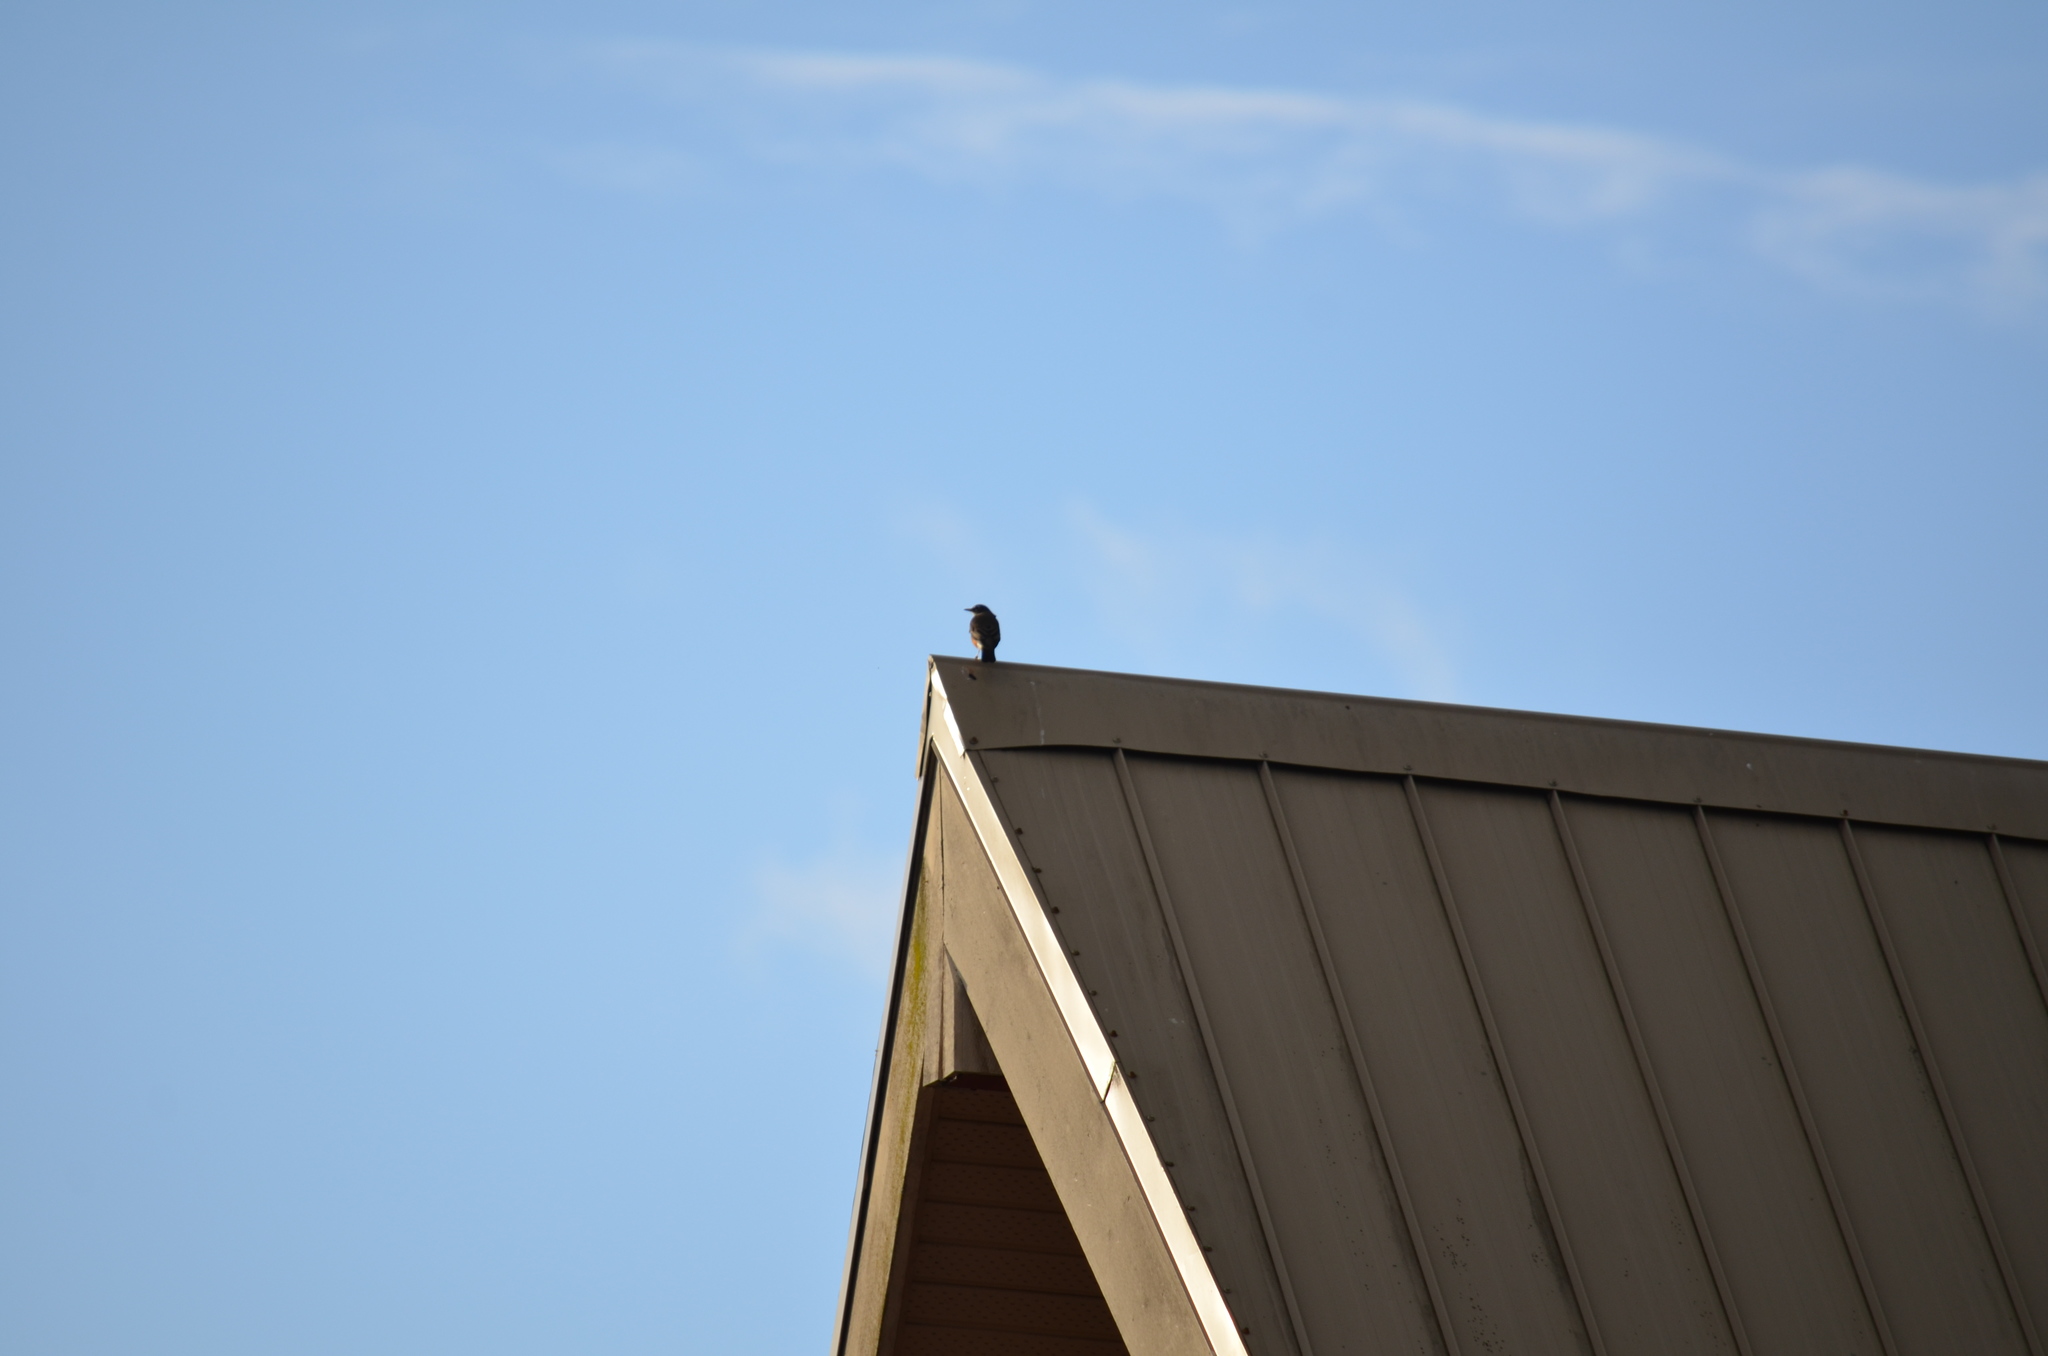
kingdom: Animalia
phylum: Chordata
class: Aves
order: Passeriformes
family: Turdidae
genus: Turdus
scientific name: Turdus migratorius
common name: American robin
